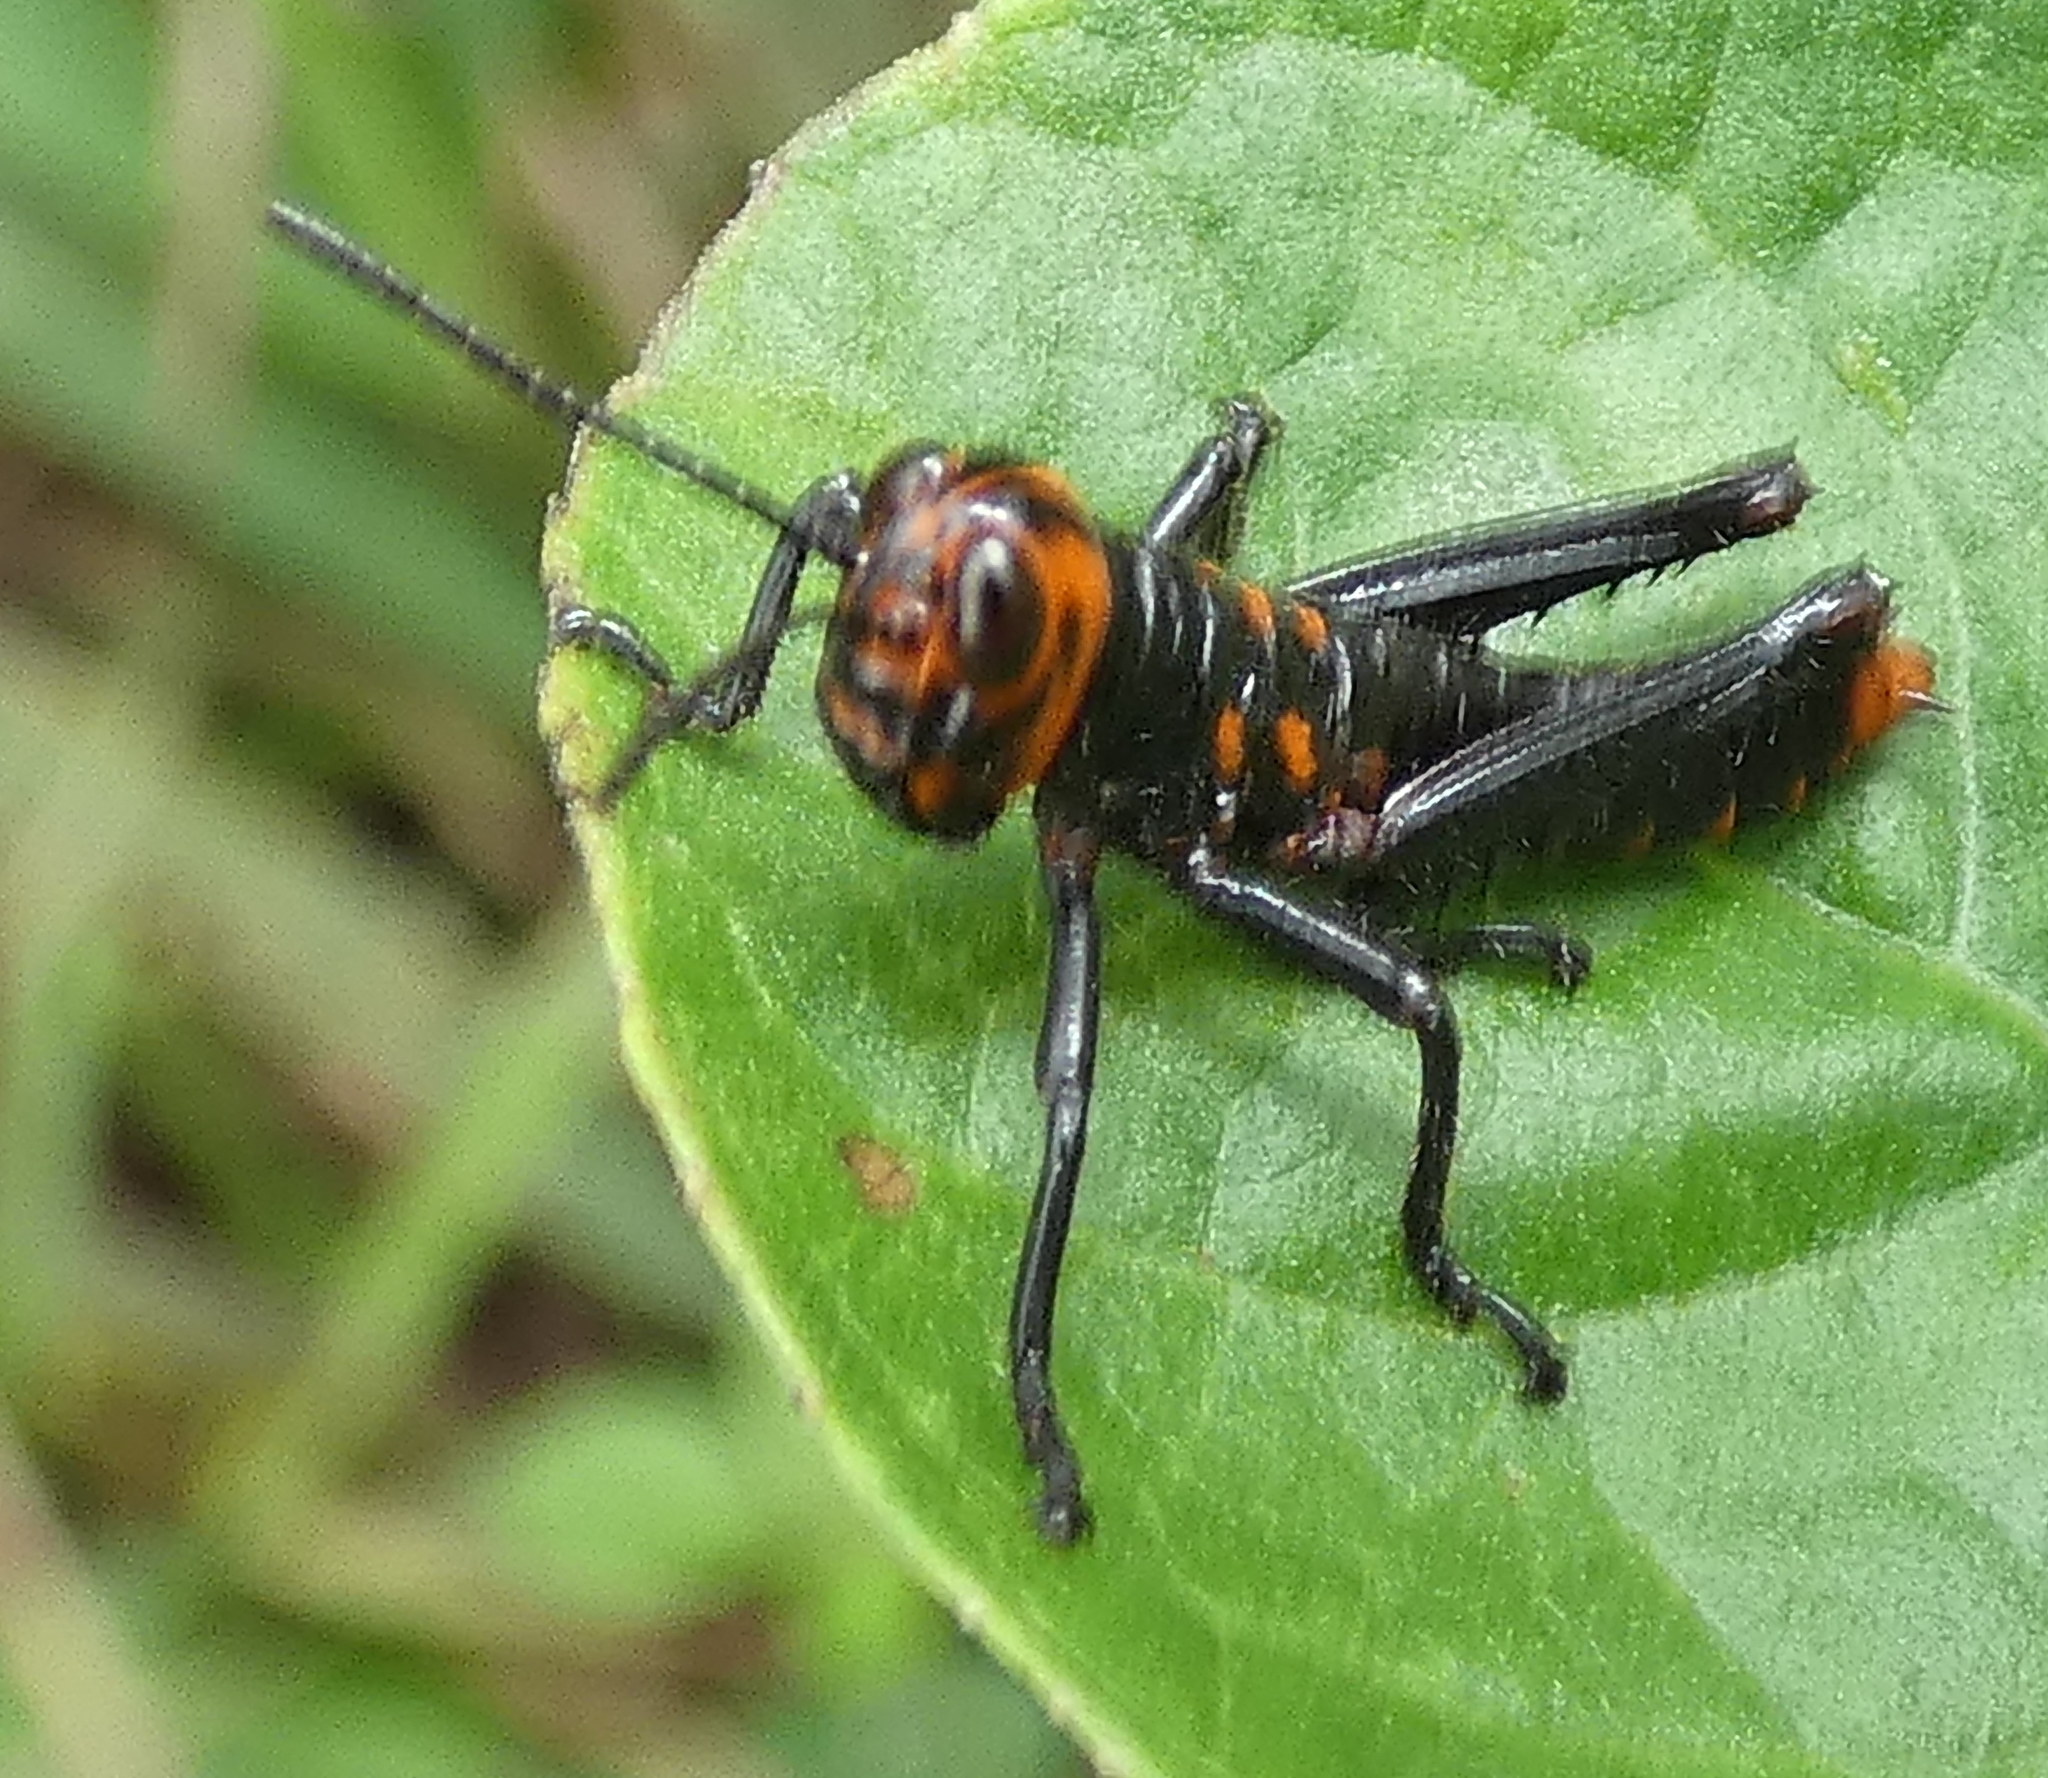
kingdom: Animalia
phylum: Arthropoda
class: Insecta
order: Orthoptera
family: Romaleidae
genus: Tropidacris
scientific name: Tropidacris collaris
